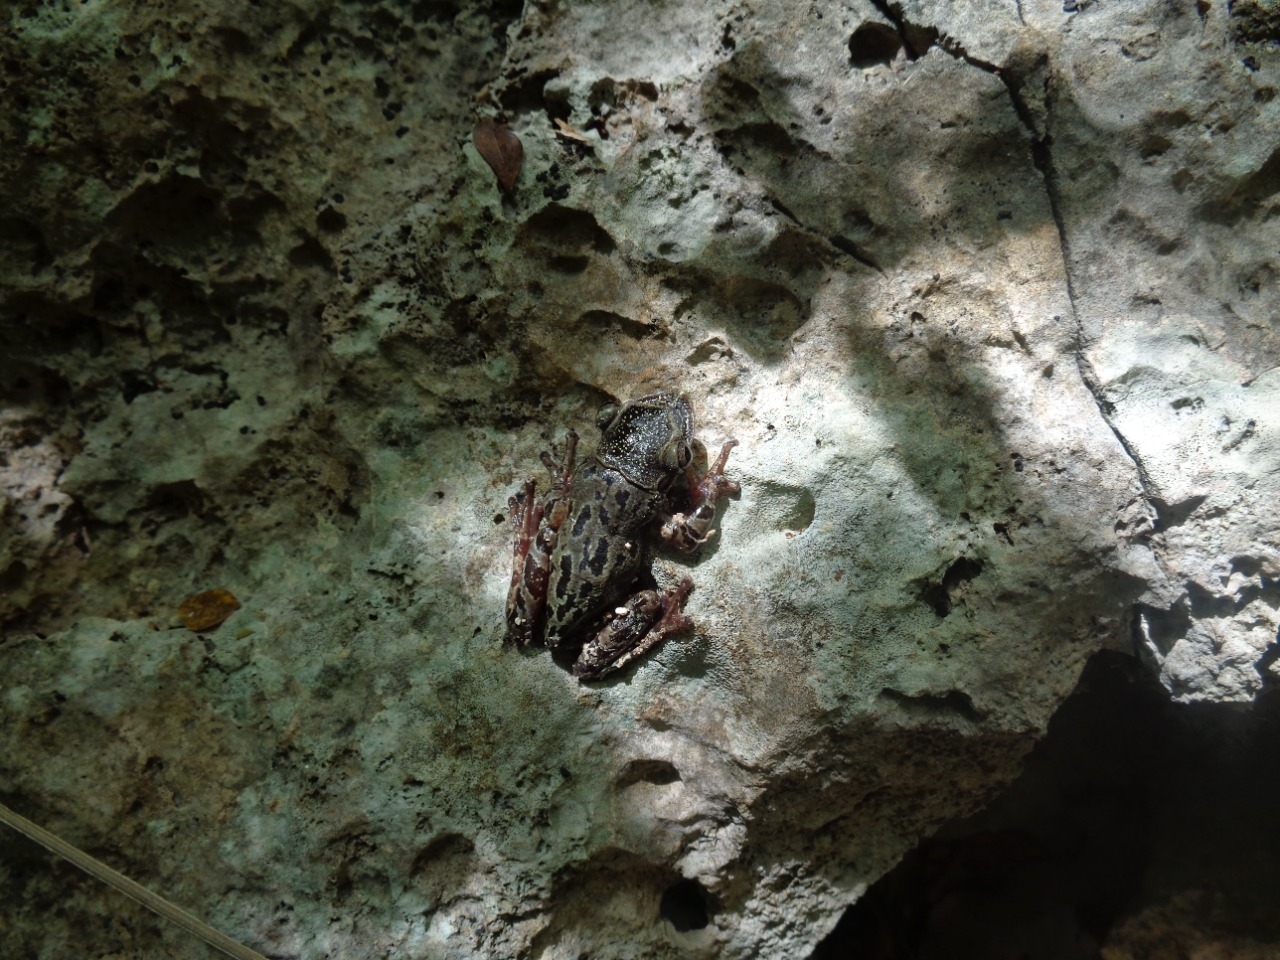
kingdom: Animalia
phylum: Chordata
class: Amphibia
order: Anura
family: Hylidae
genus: Triprion
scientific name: Triprion petasatus
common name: Yucatecan casque-headed treefrog
